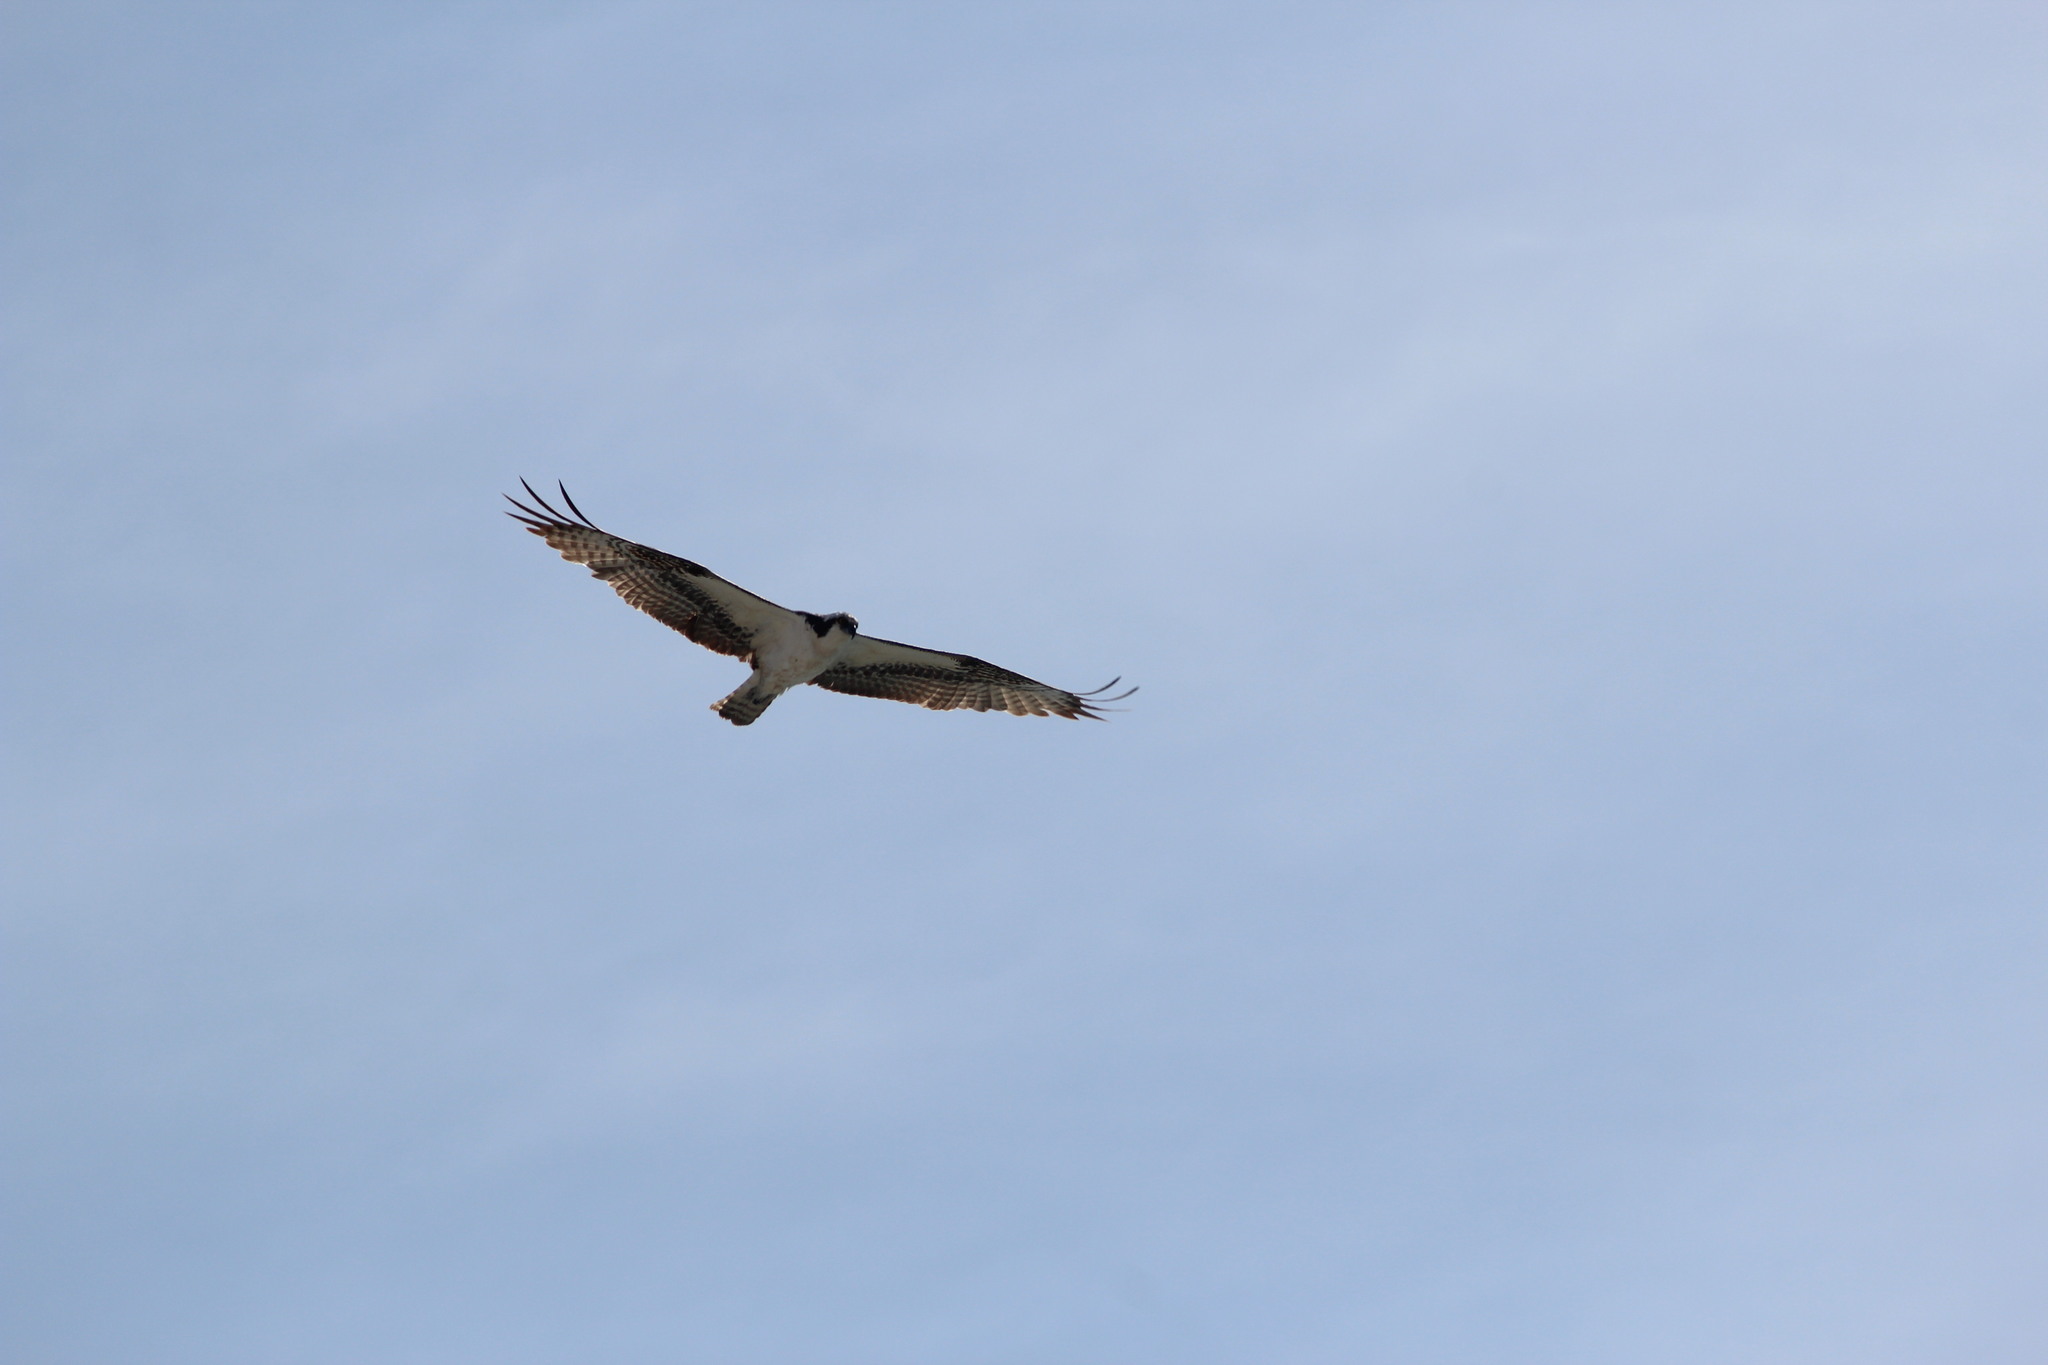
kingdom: Animalia
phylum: Chordata
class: Aves
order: Accipitriformes
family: Pandionidae
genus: Pandion
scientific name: Pandion haliaetus
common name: Osprey
